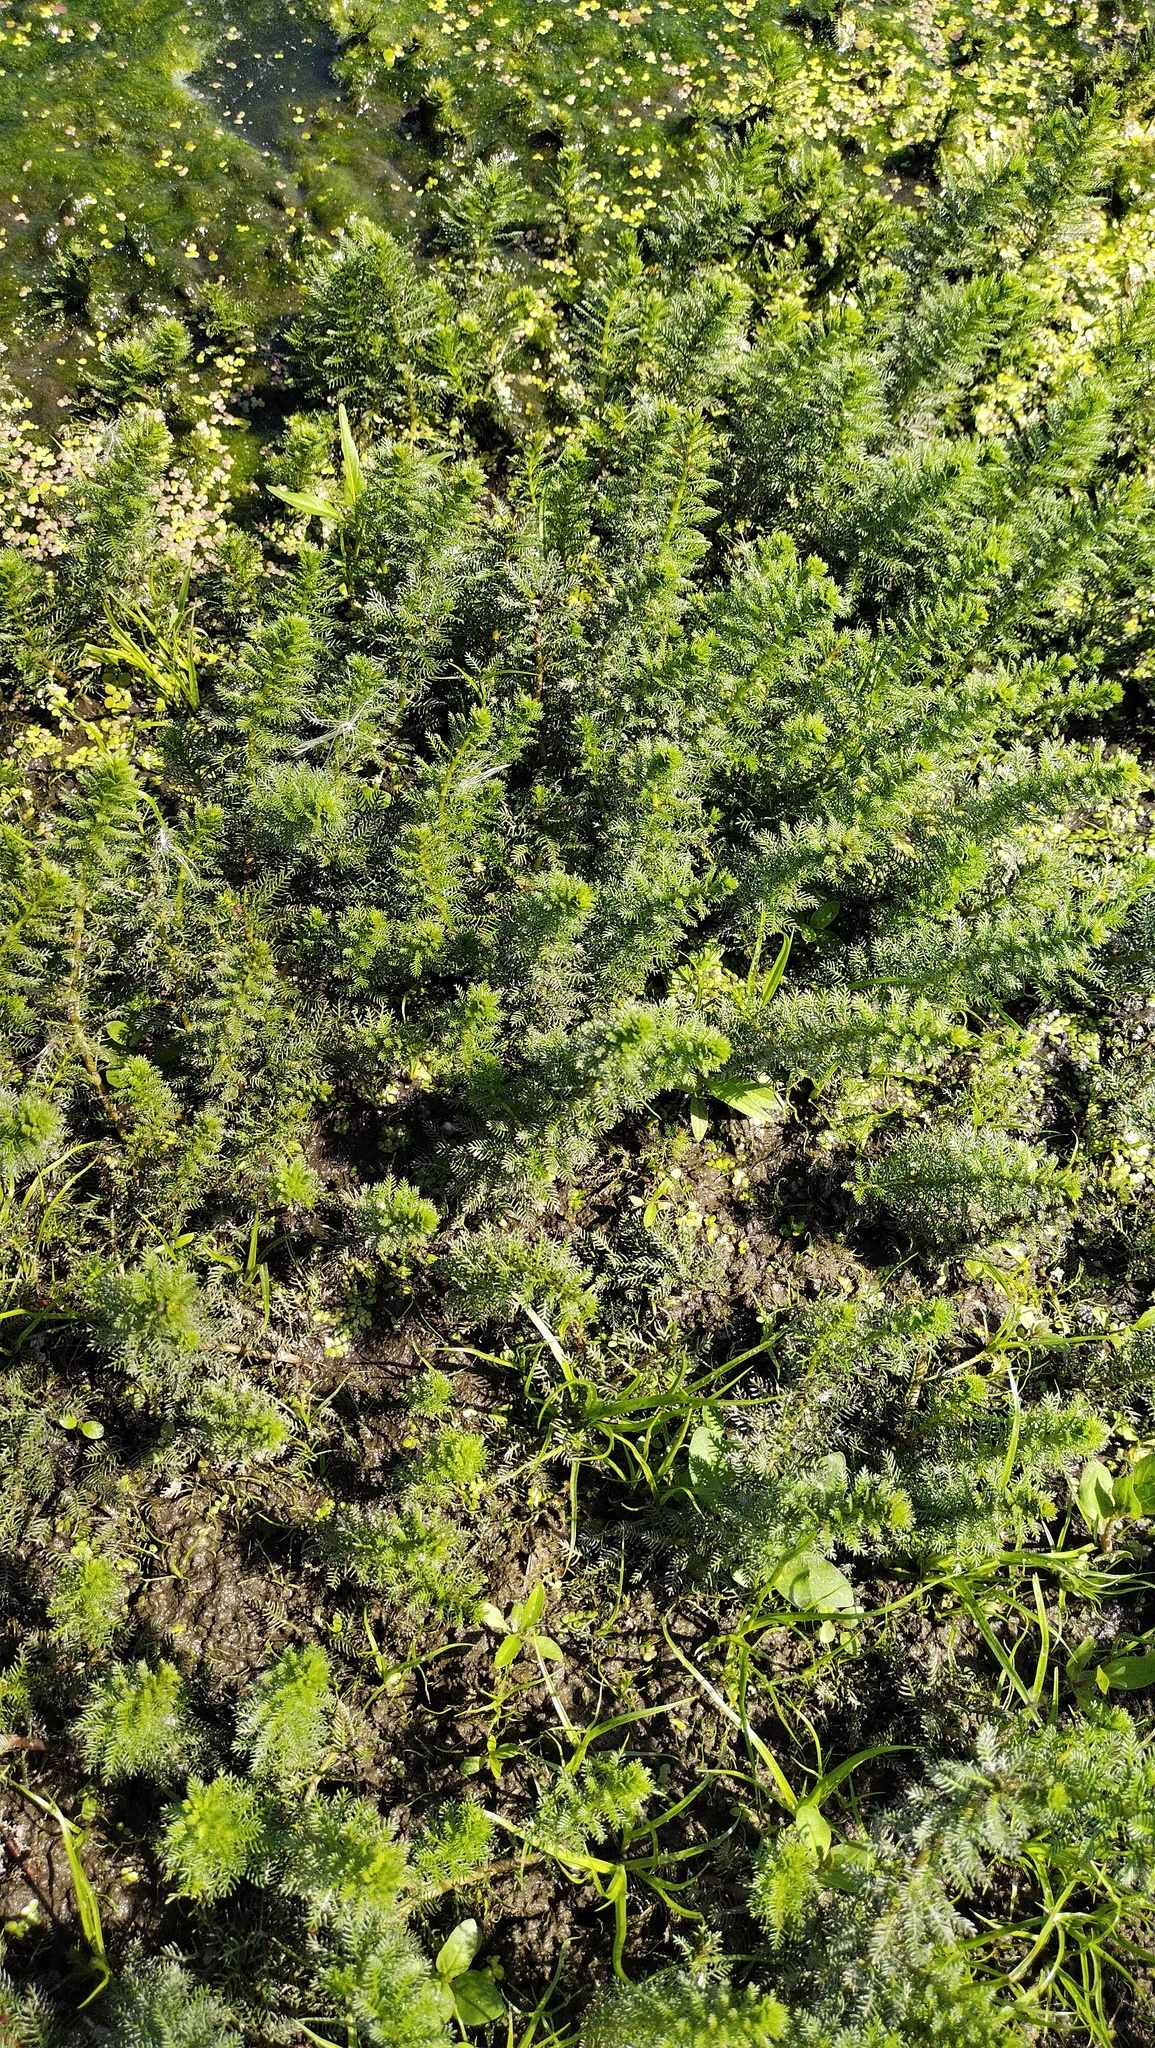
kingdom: Plantae
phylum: Tracheophyta
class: Magnoliopsida
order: Saxifragales
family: Haloragaceae
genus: Myriophyllum
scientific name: Myriophyllum verticillatum
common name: Whorled water-milfoil
